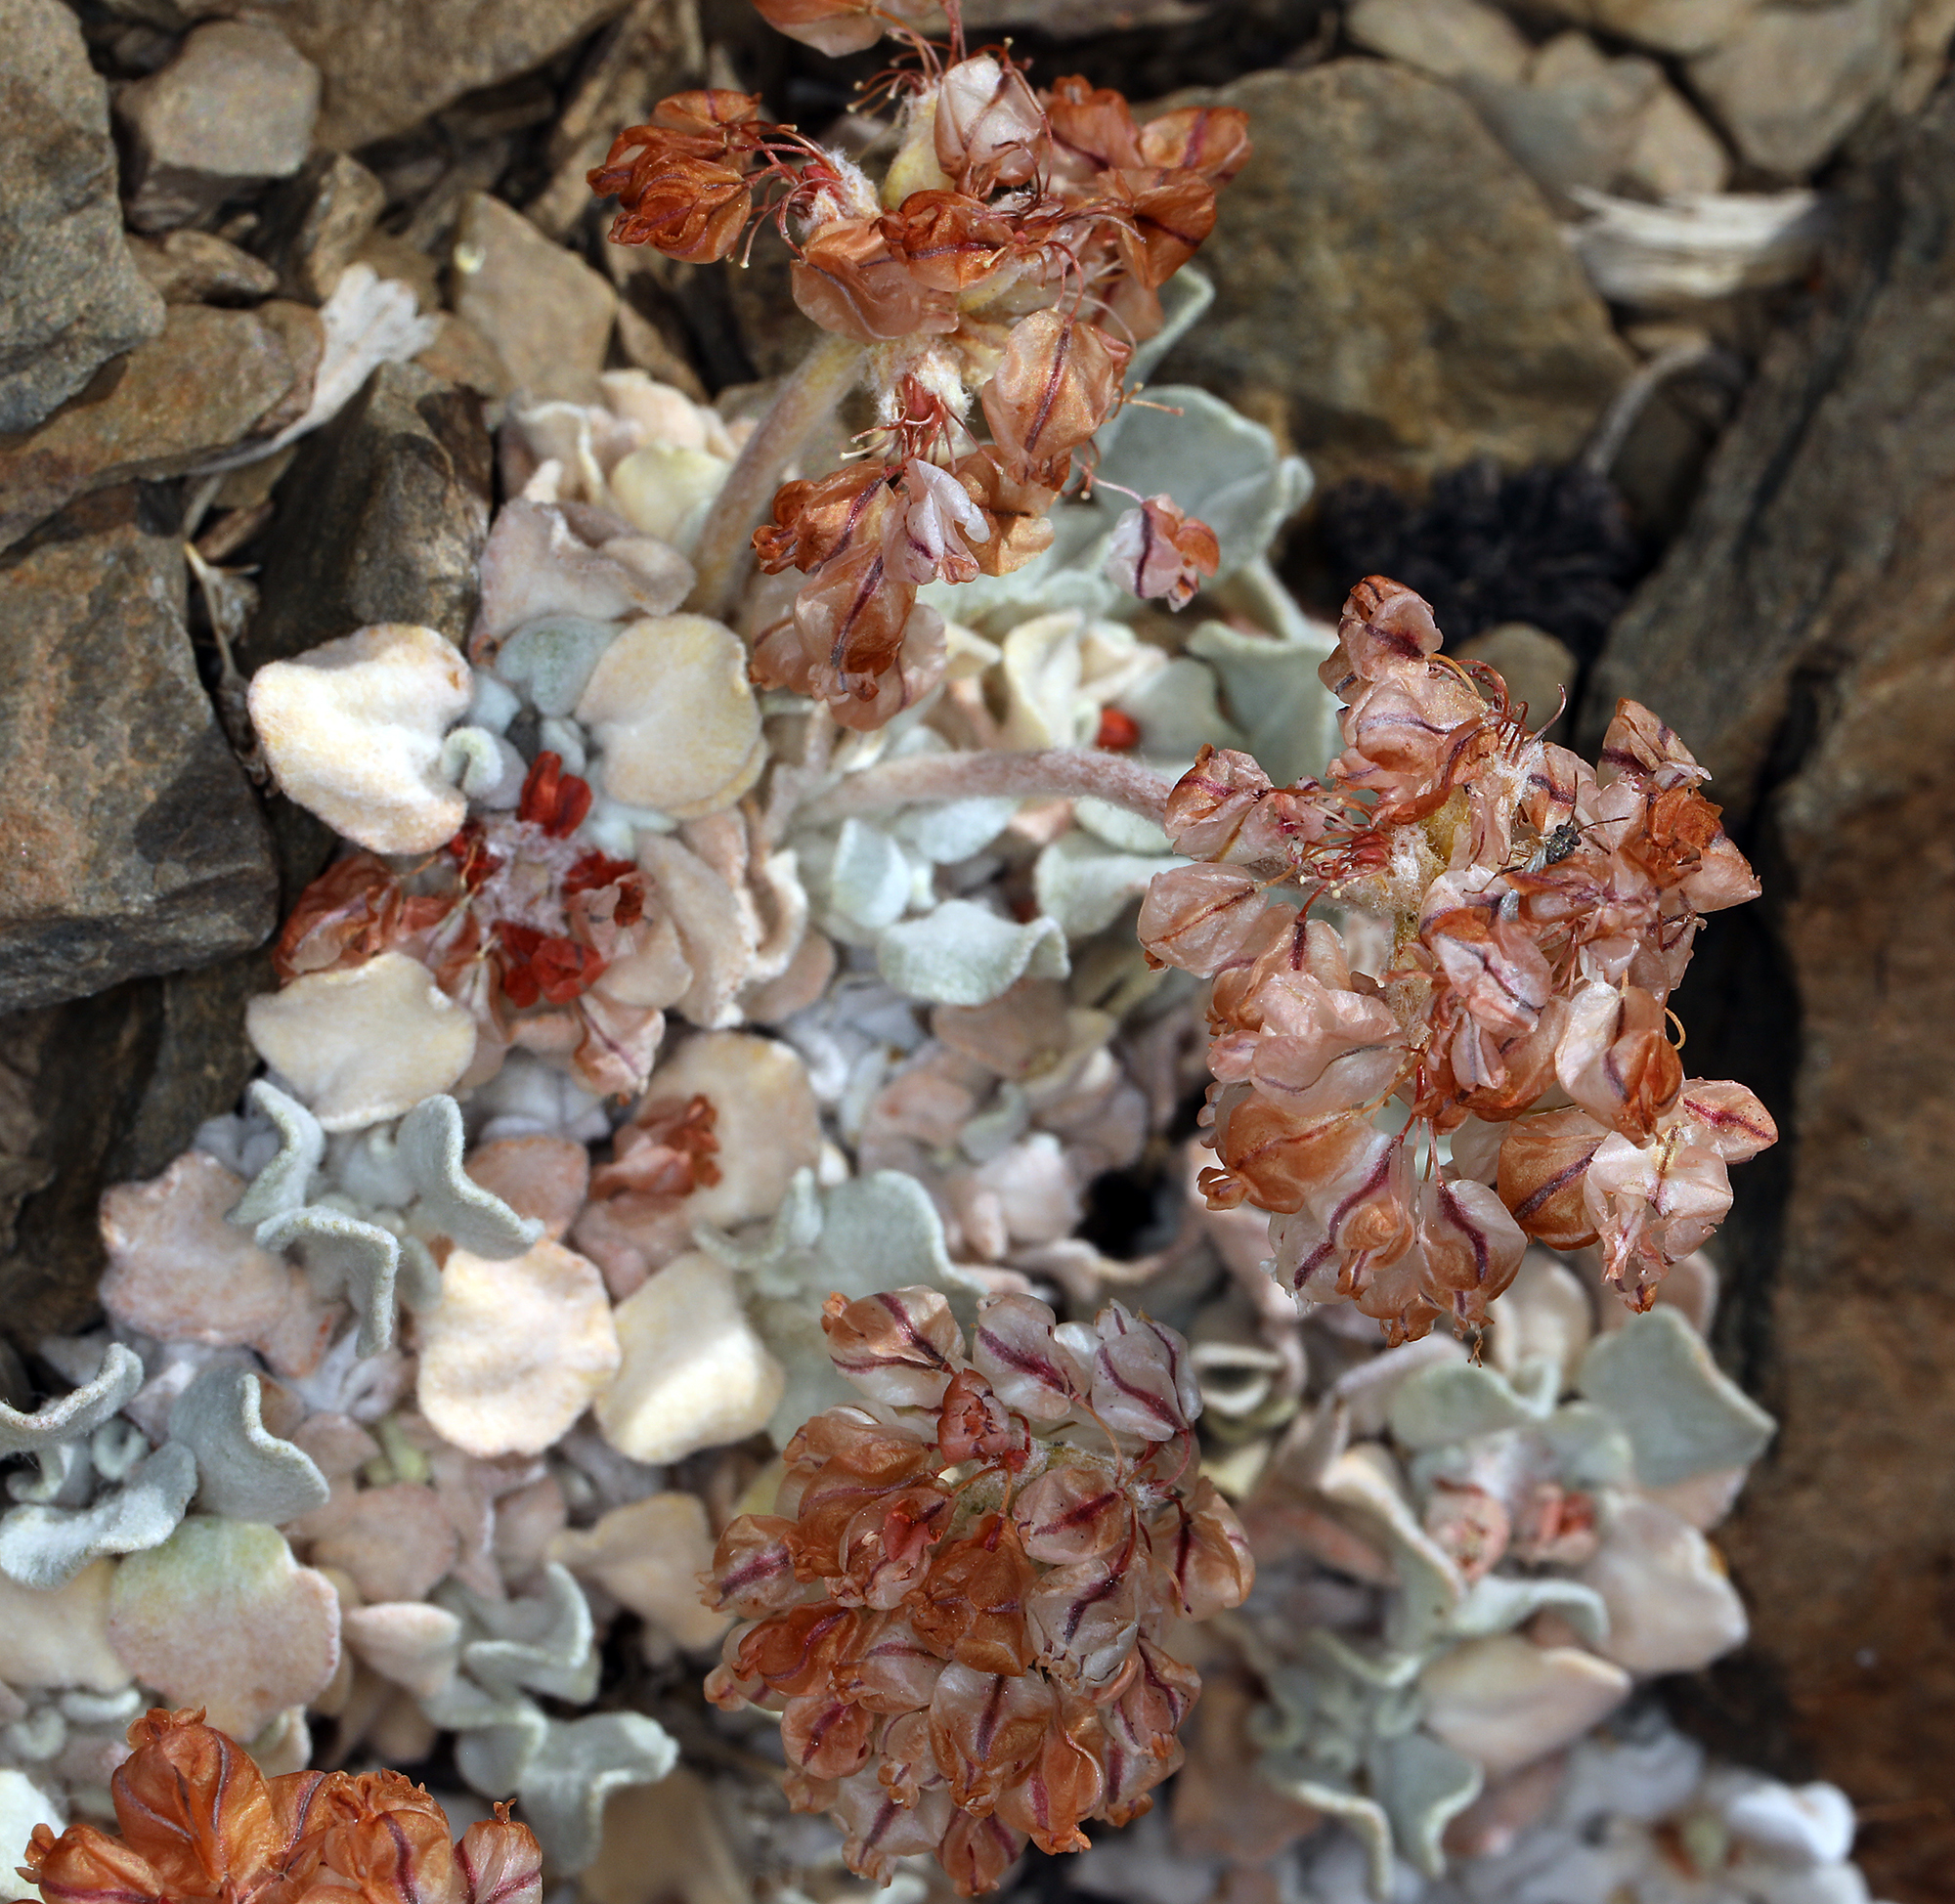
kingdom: Plantae
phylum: Tracheophyta
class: Magnoliopsida
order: Caryophyllales
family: Polygonaceae
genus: Eriogonum
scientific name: Eriogonum ovalifolium
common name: Cushion buckwheat
